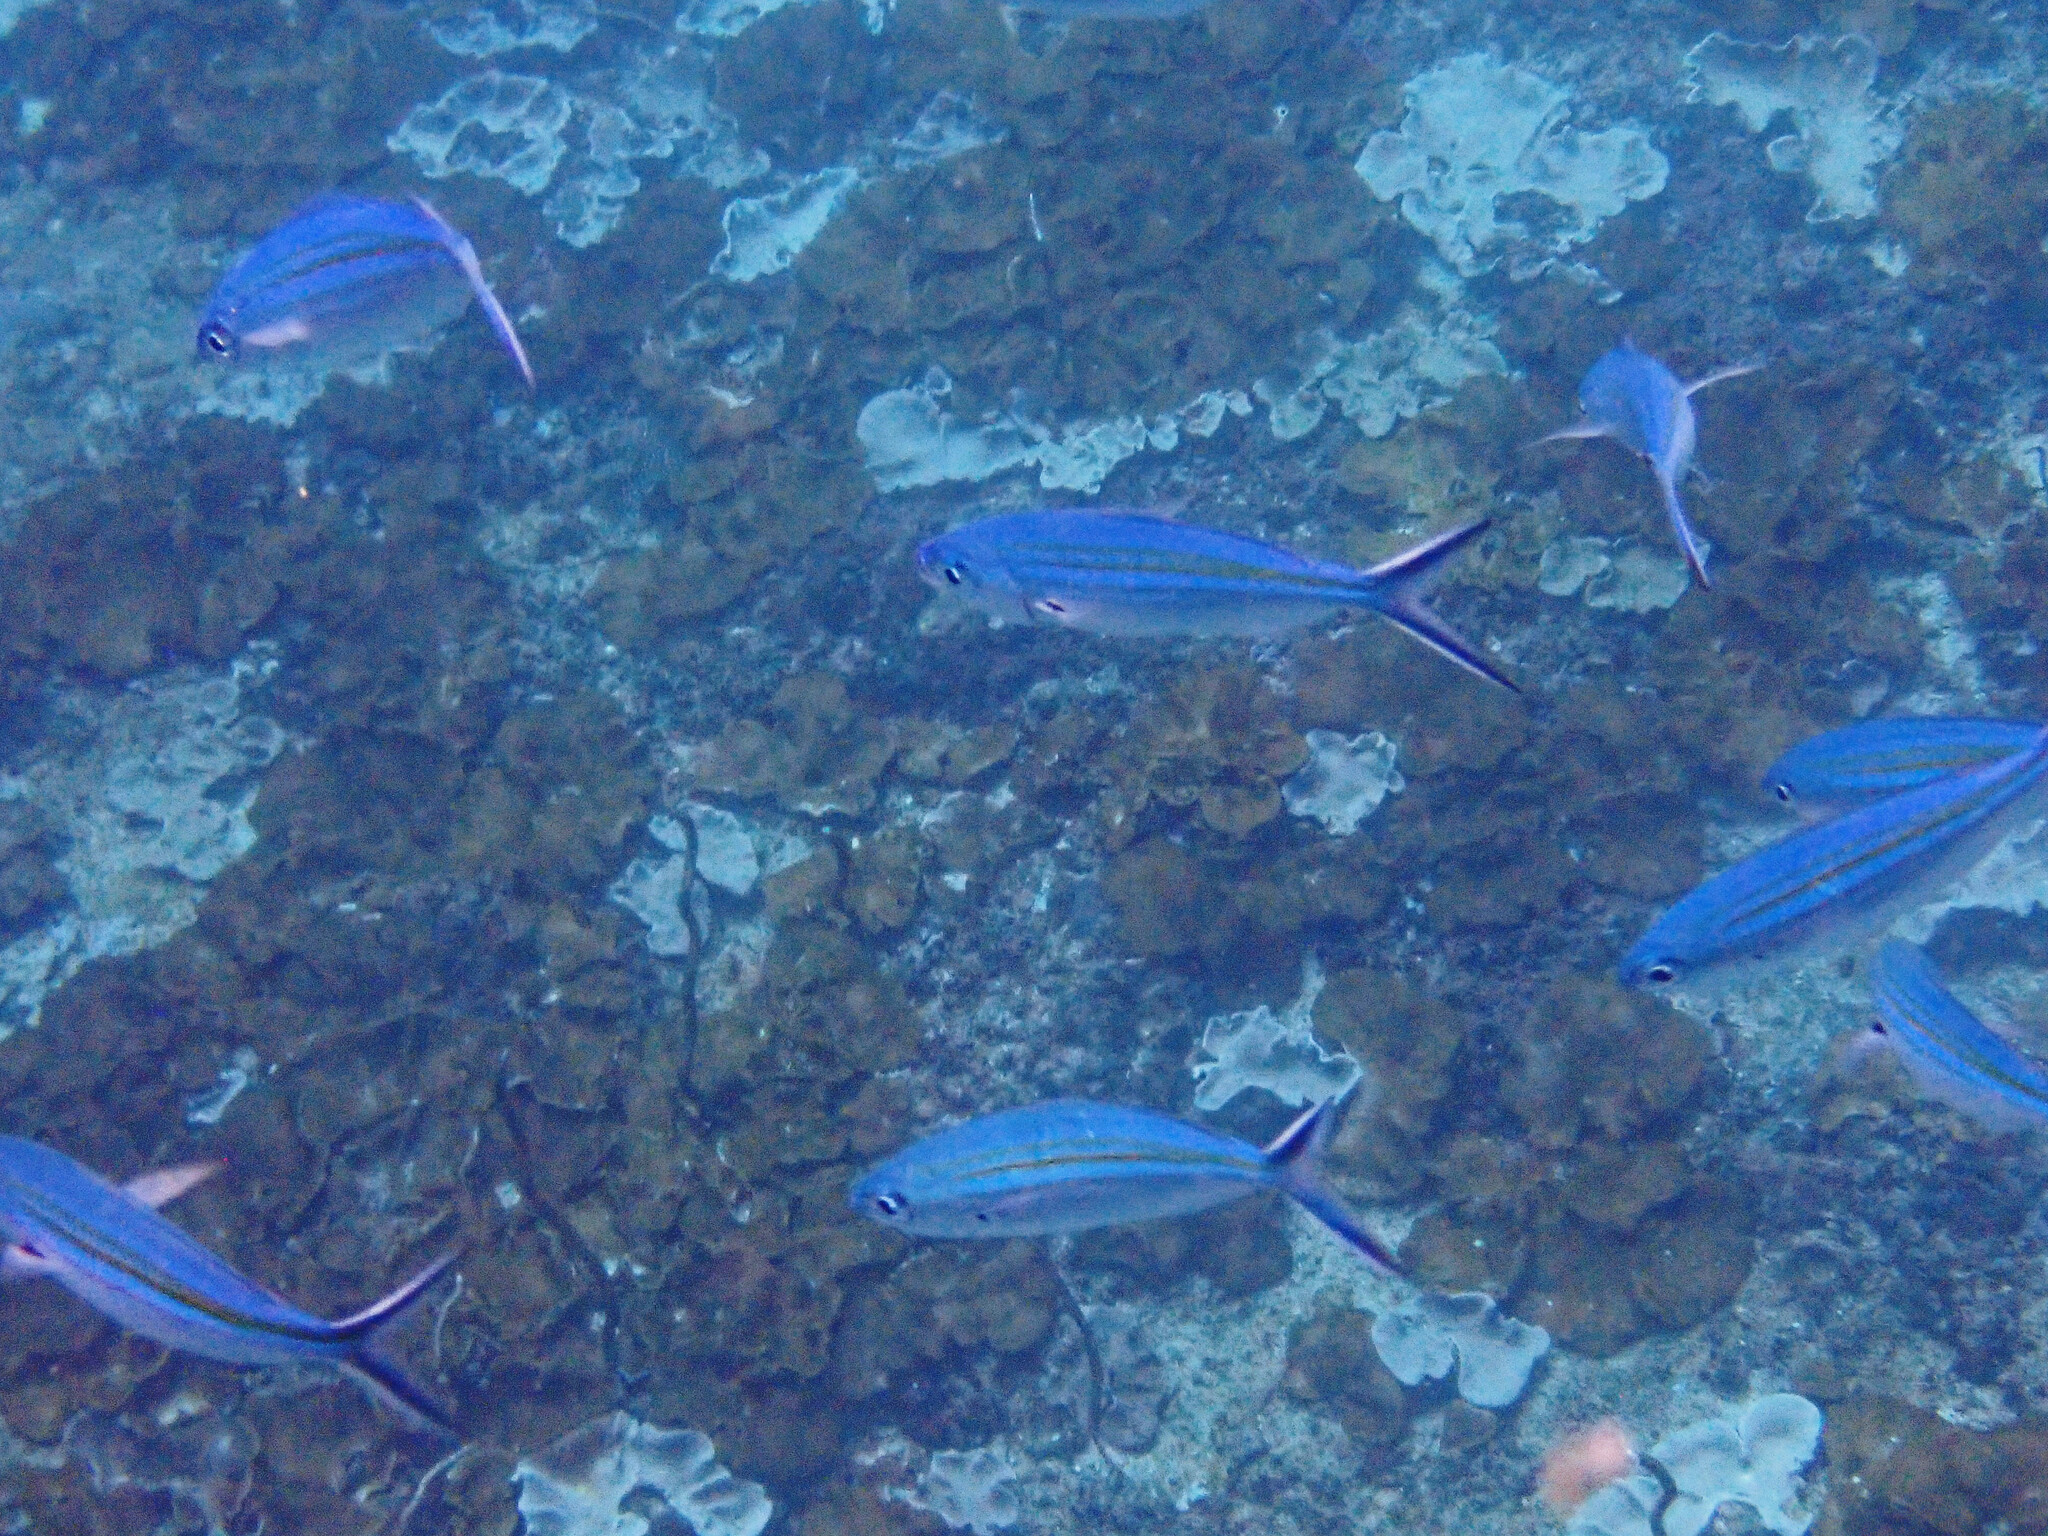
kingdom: Animalia
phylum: Chordata
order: Perciformes
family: Caesionidae
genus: Caesio
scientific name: Caesio caerulaurea
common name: Blue and gold fusilier
